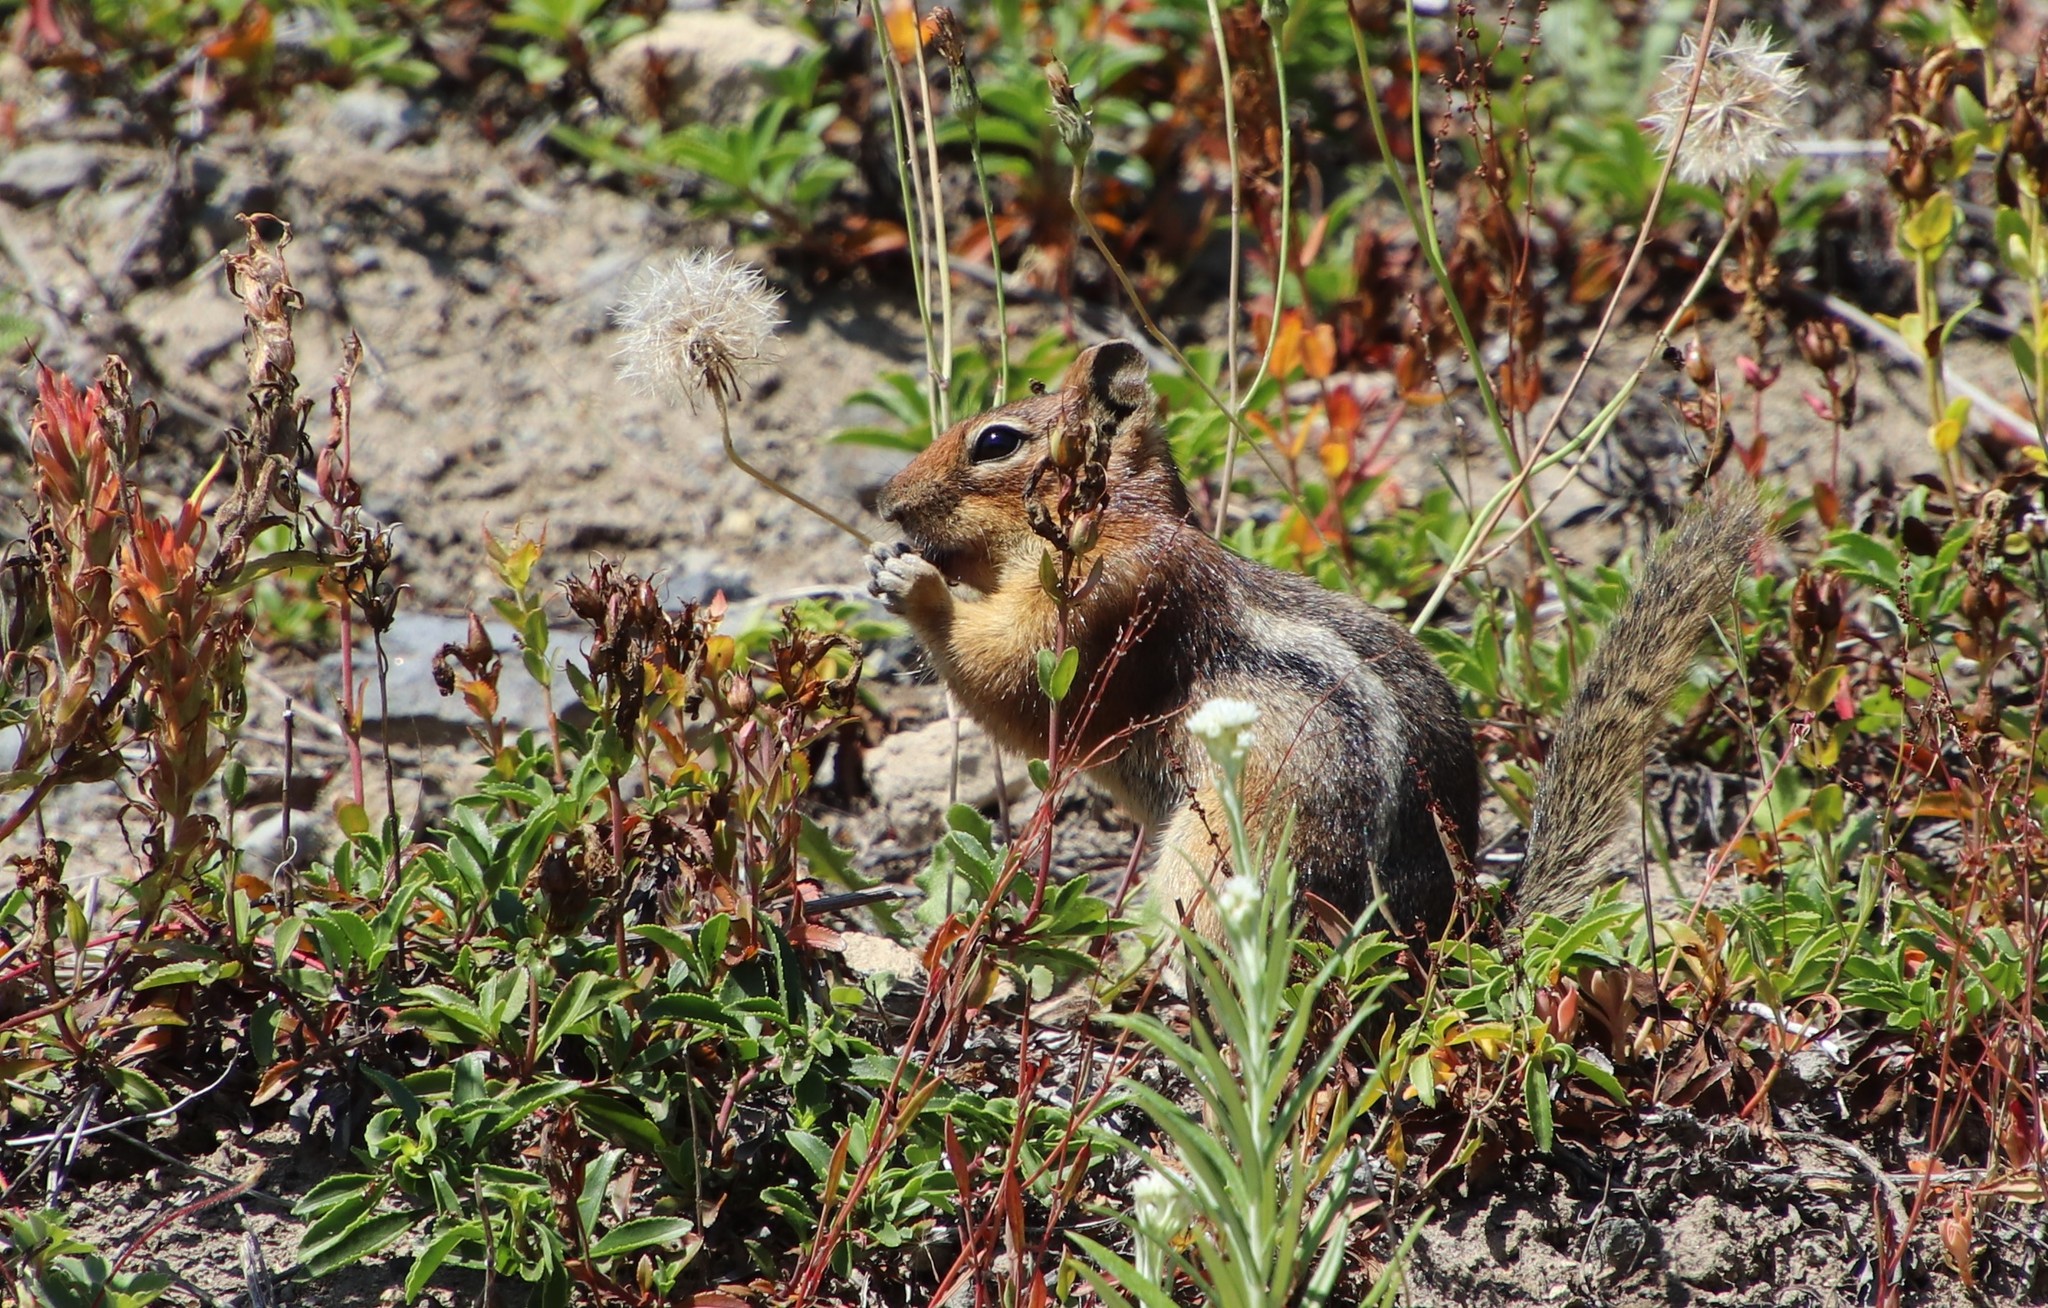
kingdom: Animalia
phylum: Chordata
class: Mammalia
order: Rodentia
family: Sciuridae
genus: Callospermophilus
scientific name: Callospermophilus saturatus
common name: Cascade golden-mantled ground squirrel
